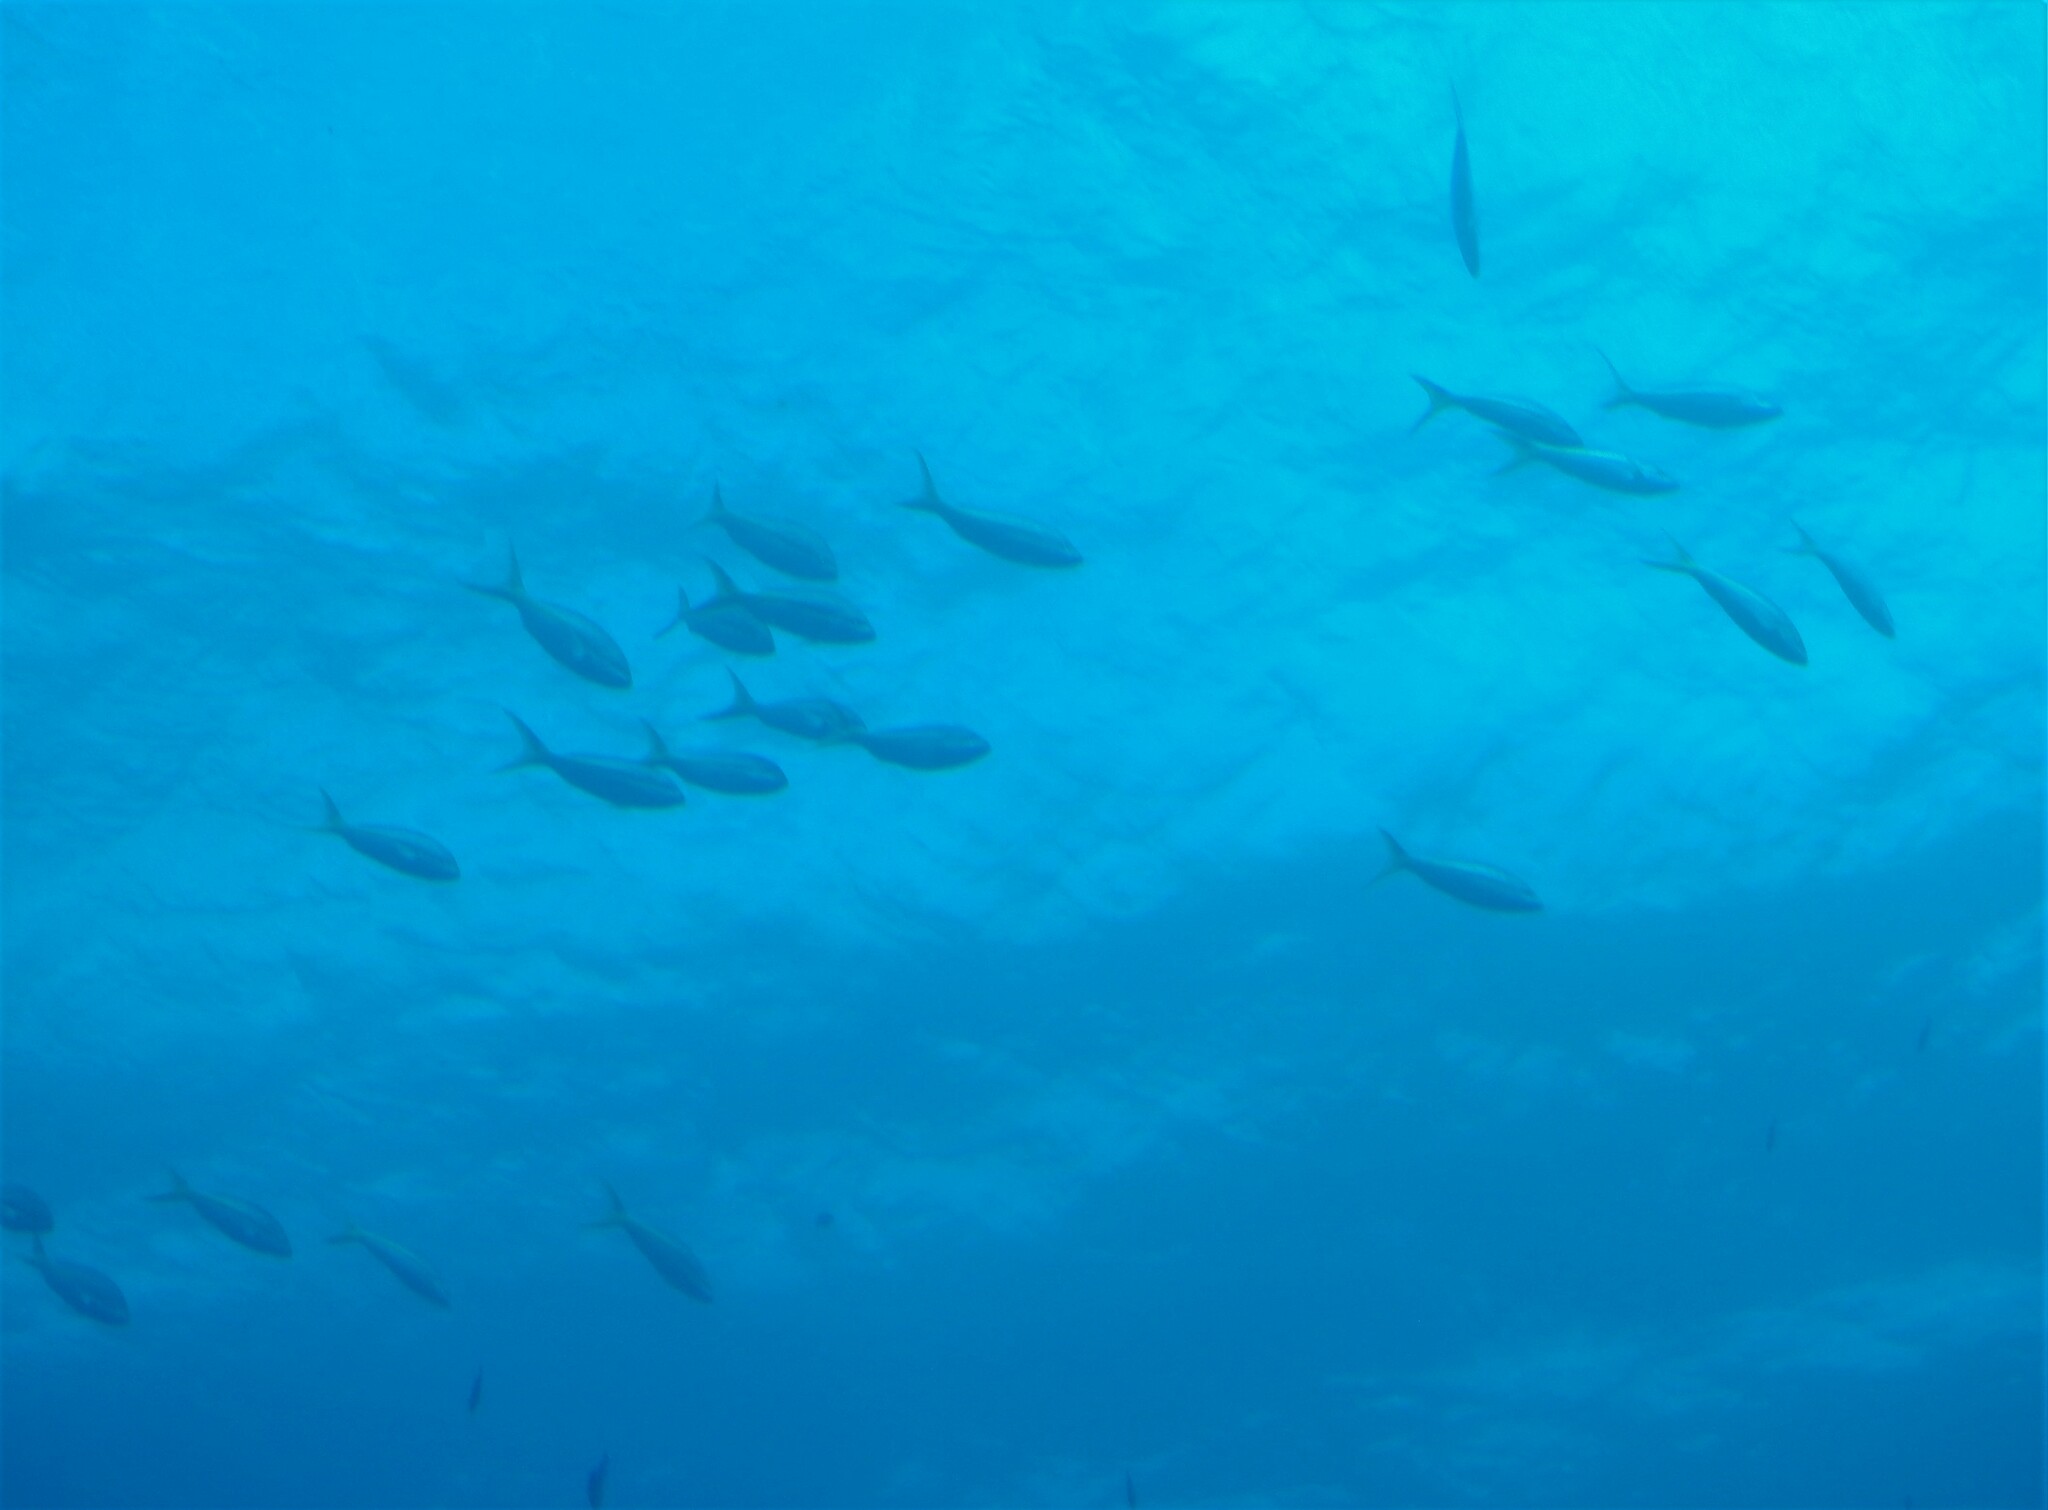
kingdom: Animalia
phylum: Chordata
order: Perciformes
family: Lutjanidae
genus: Ocyurus
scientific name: Ocyurus chrysurus
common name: Yellowtail snapper
